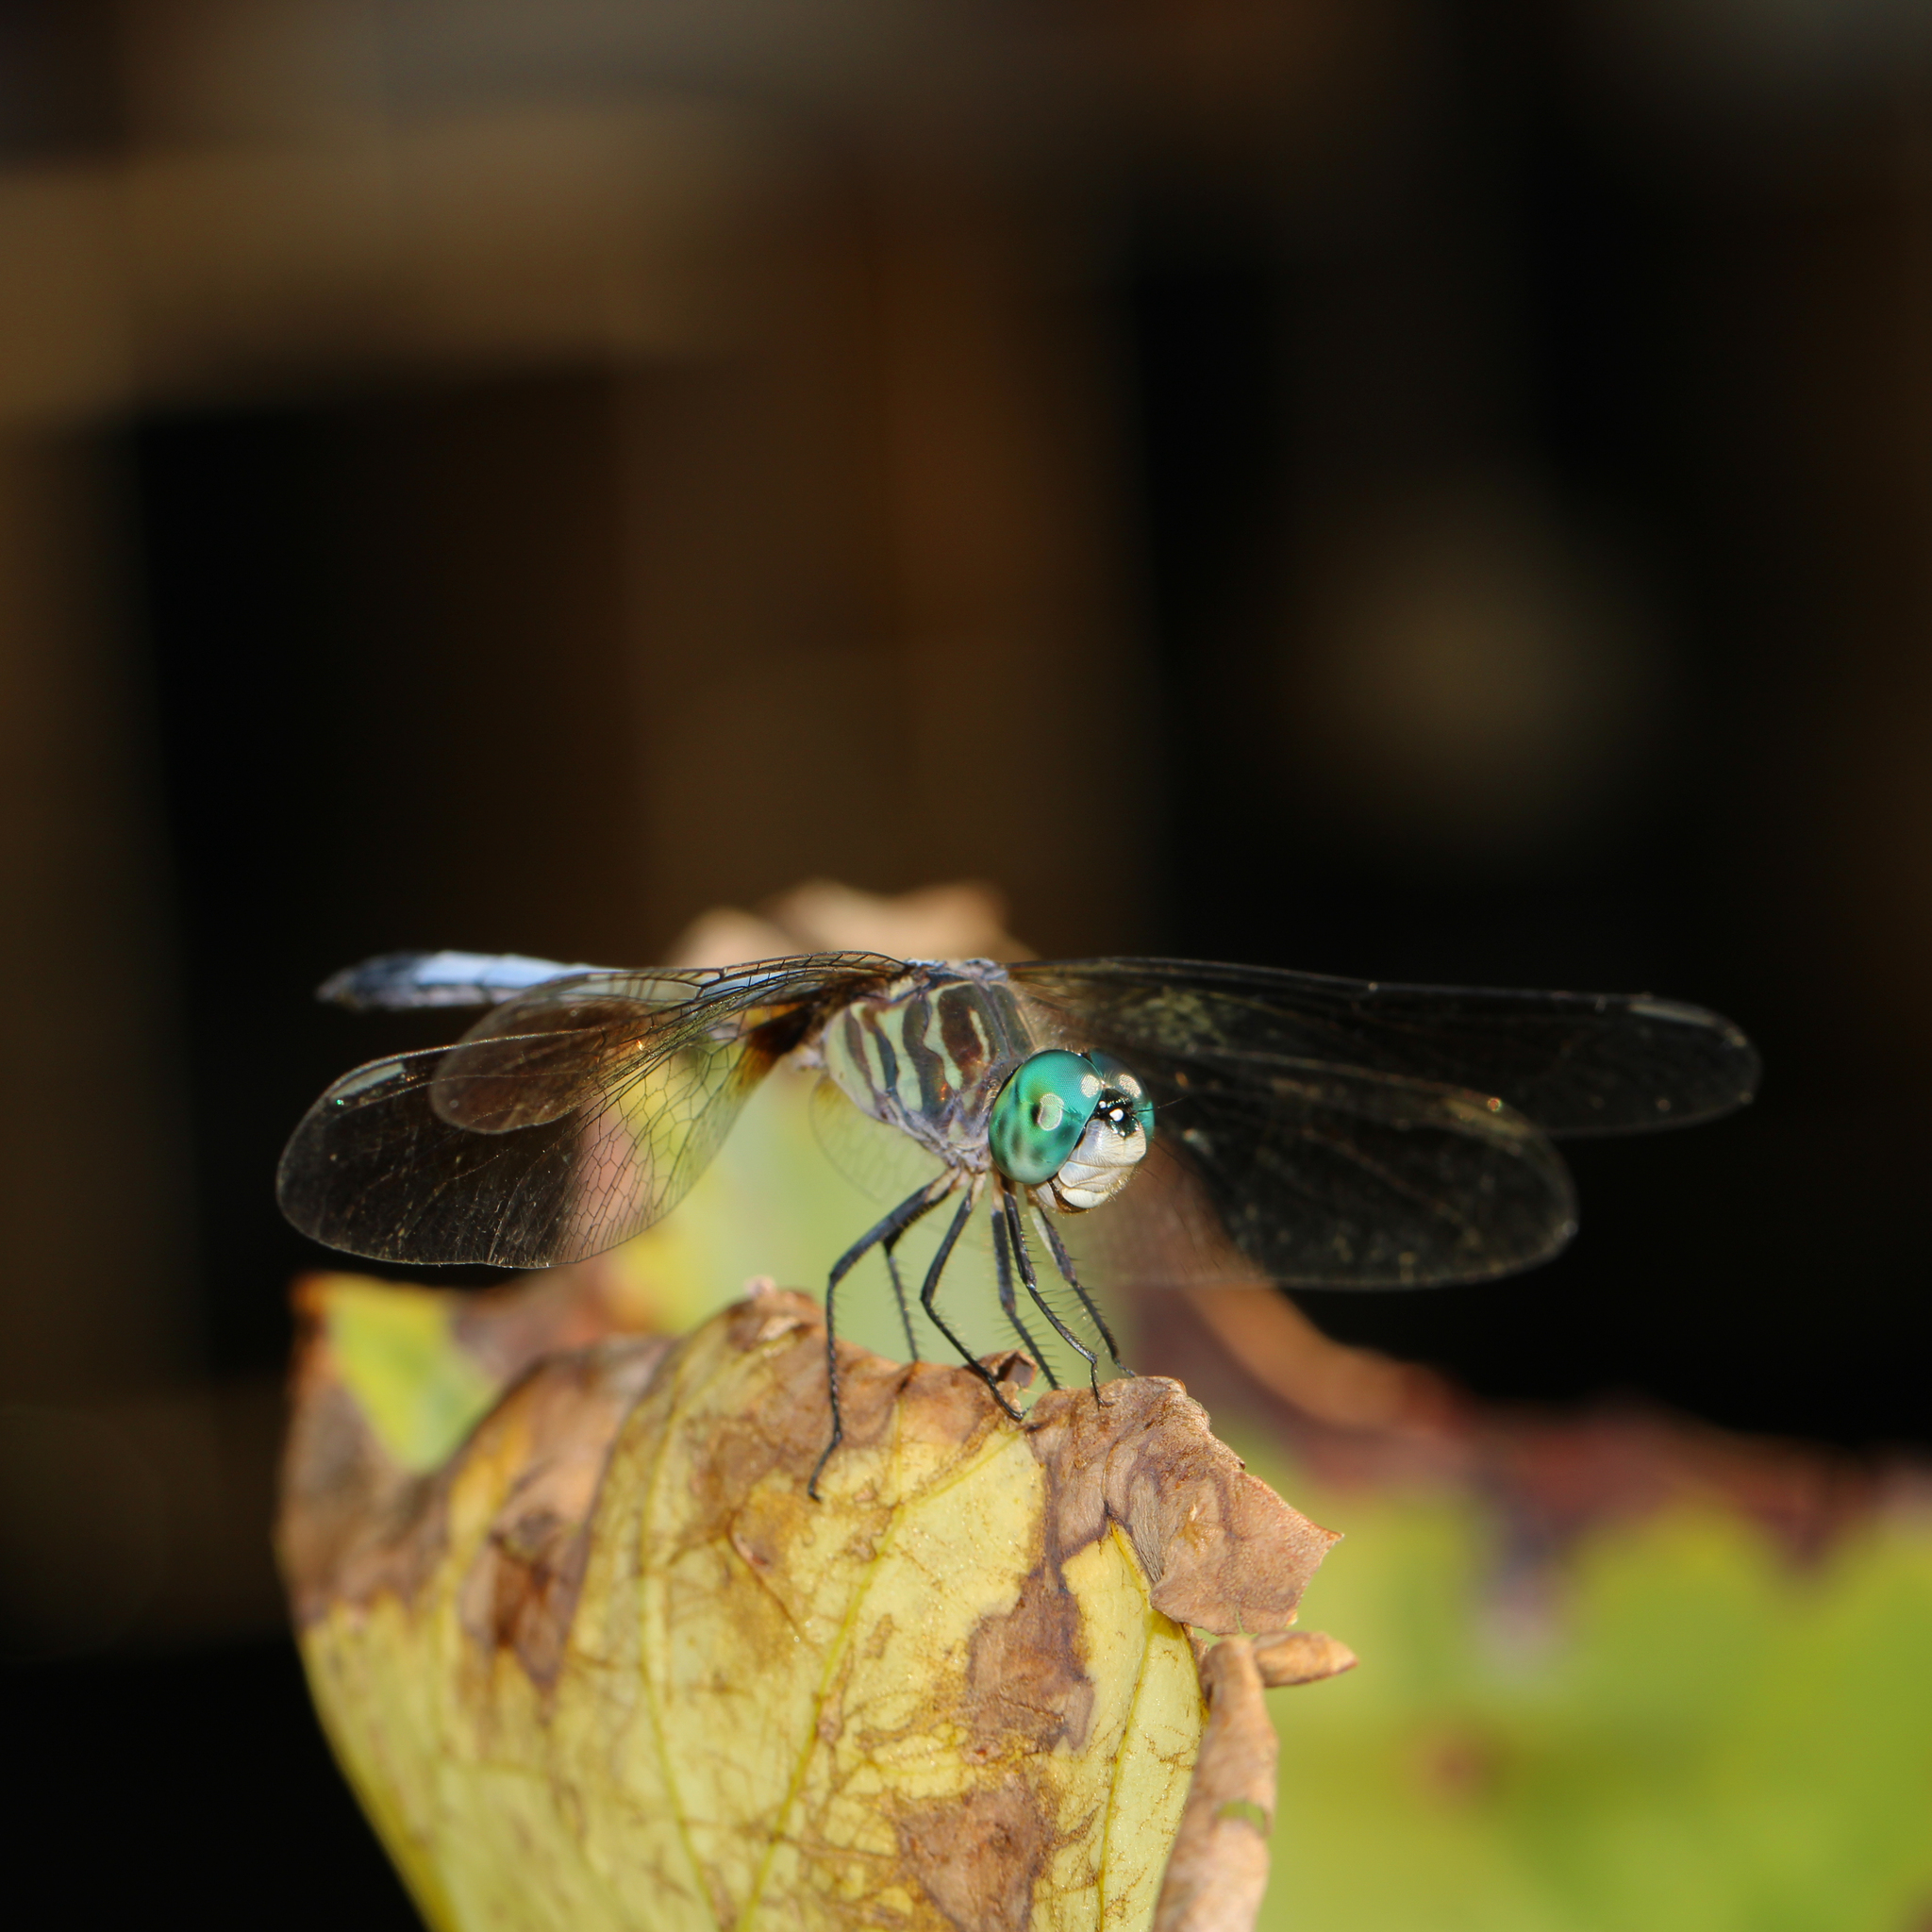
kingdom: Animalia
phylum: Arthropoda
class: Insecta
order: Odonata
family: Libellulidae
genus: Pachydiplax
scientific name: Pachydiplax longipennis
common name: Blue dasher
